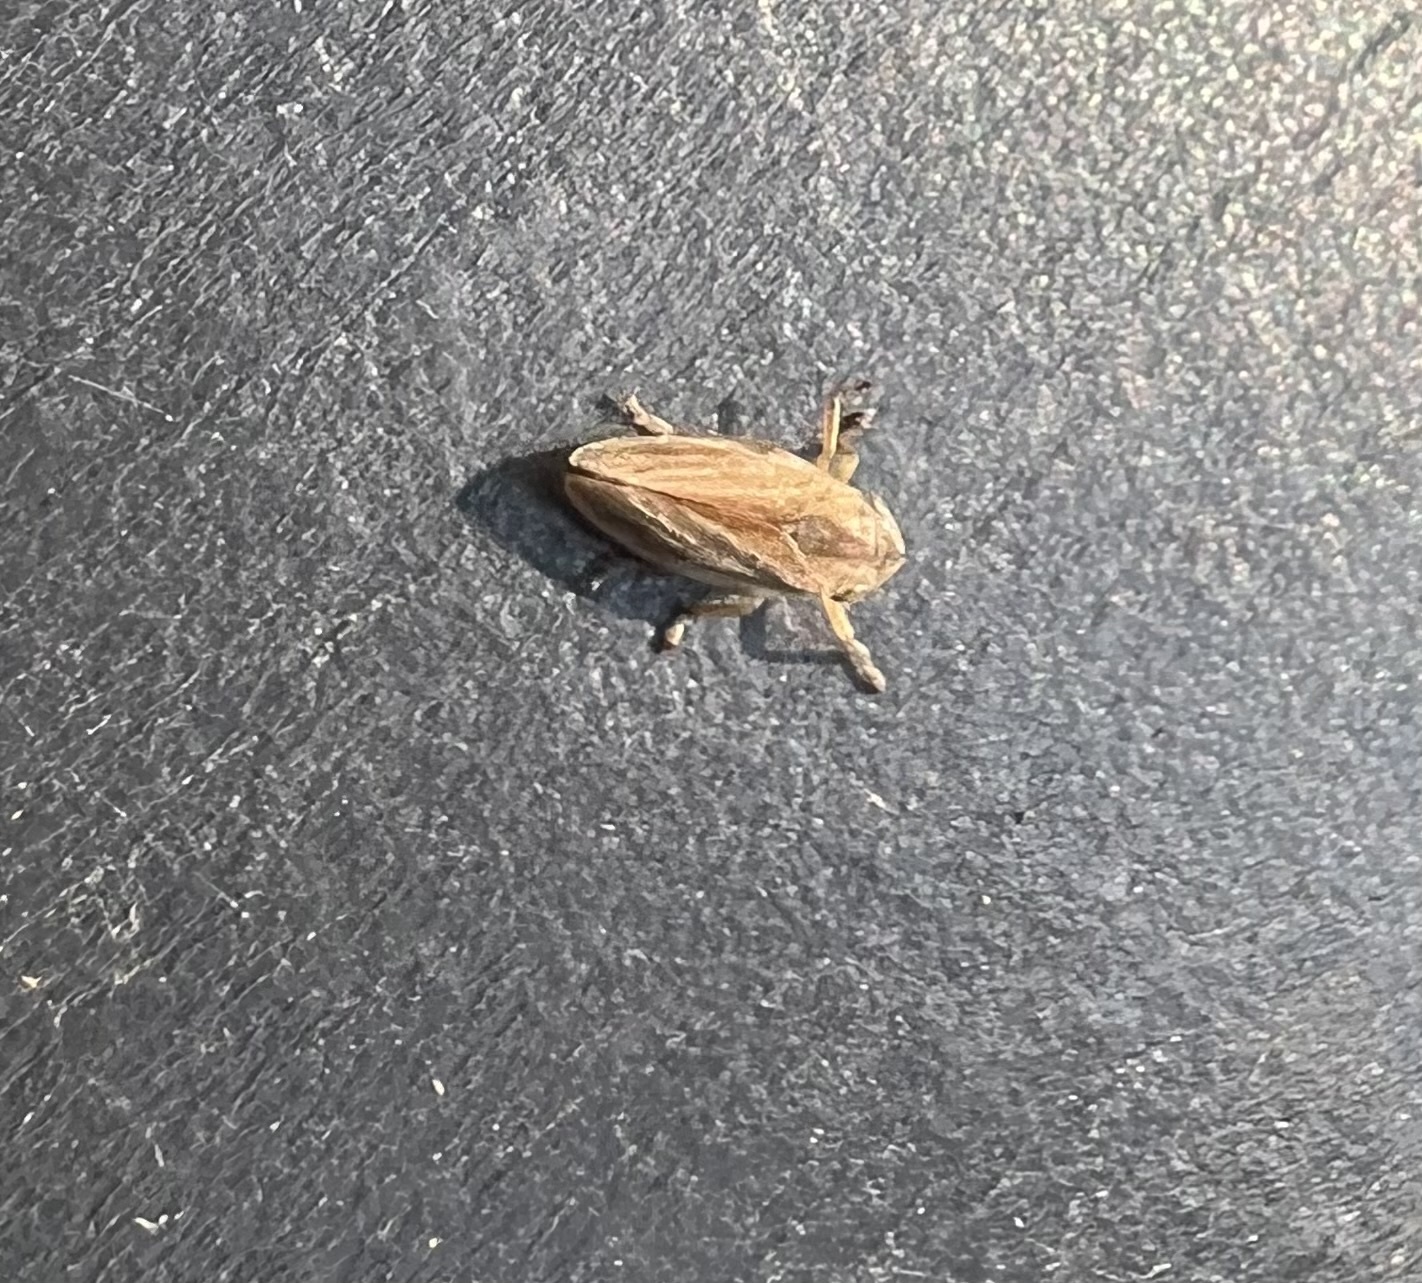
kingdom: Animalia
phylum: Arthropoda
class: Insecta
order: Hemiptera
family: Aphrophoridae
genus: Philaenus
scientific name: Philaenus spumarius
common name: Meadow spittlebug
